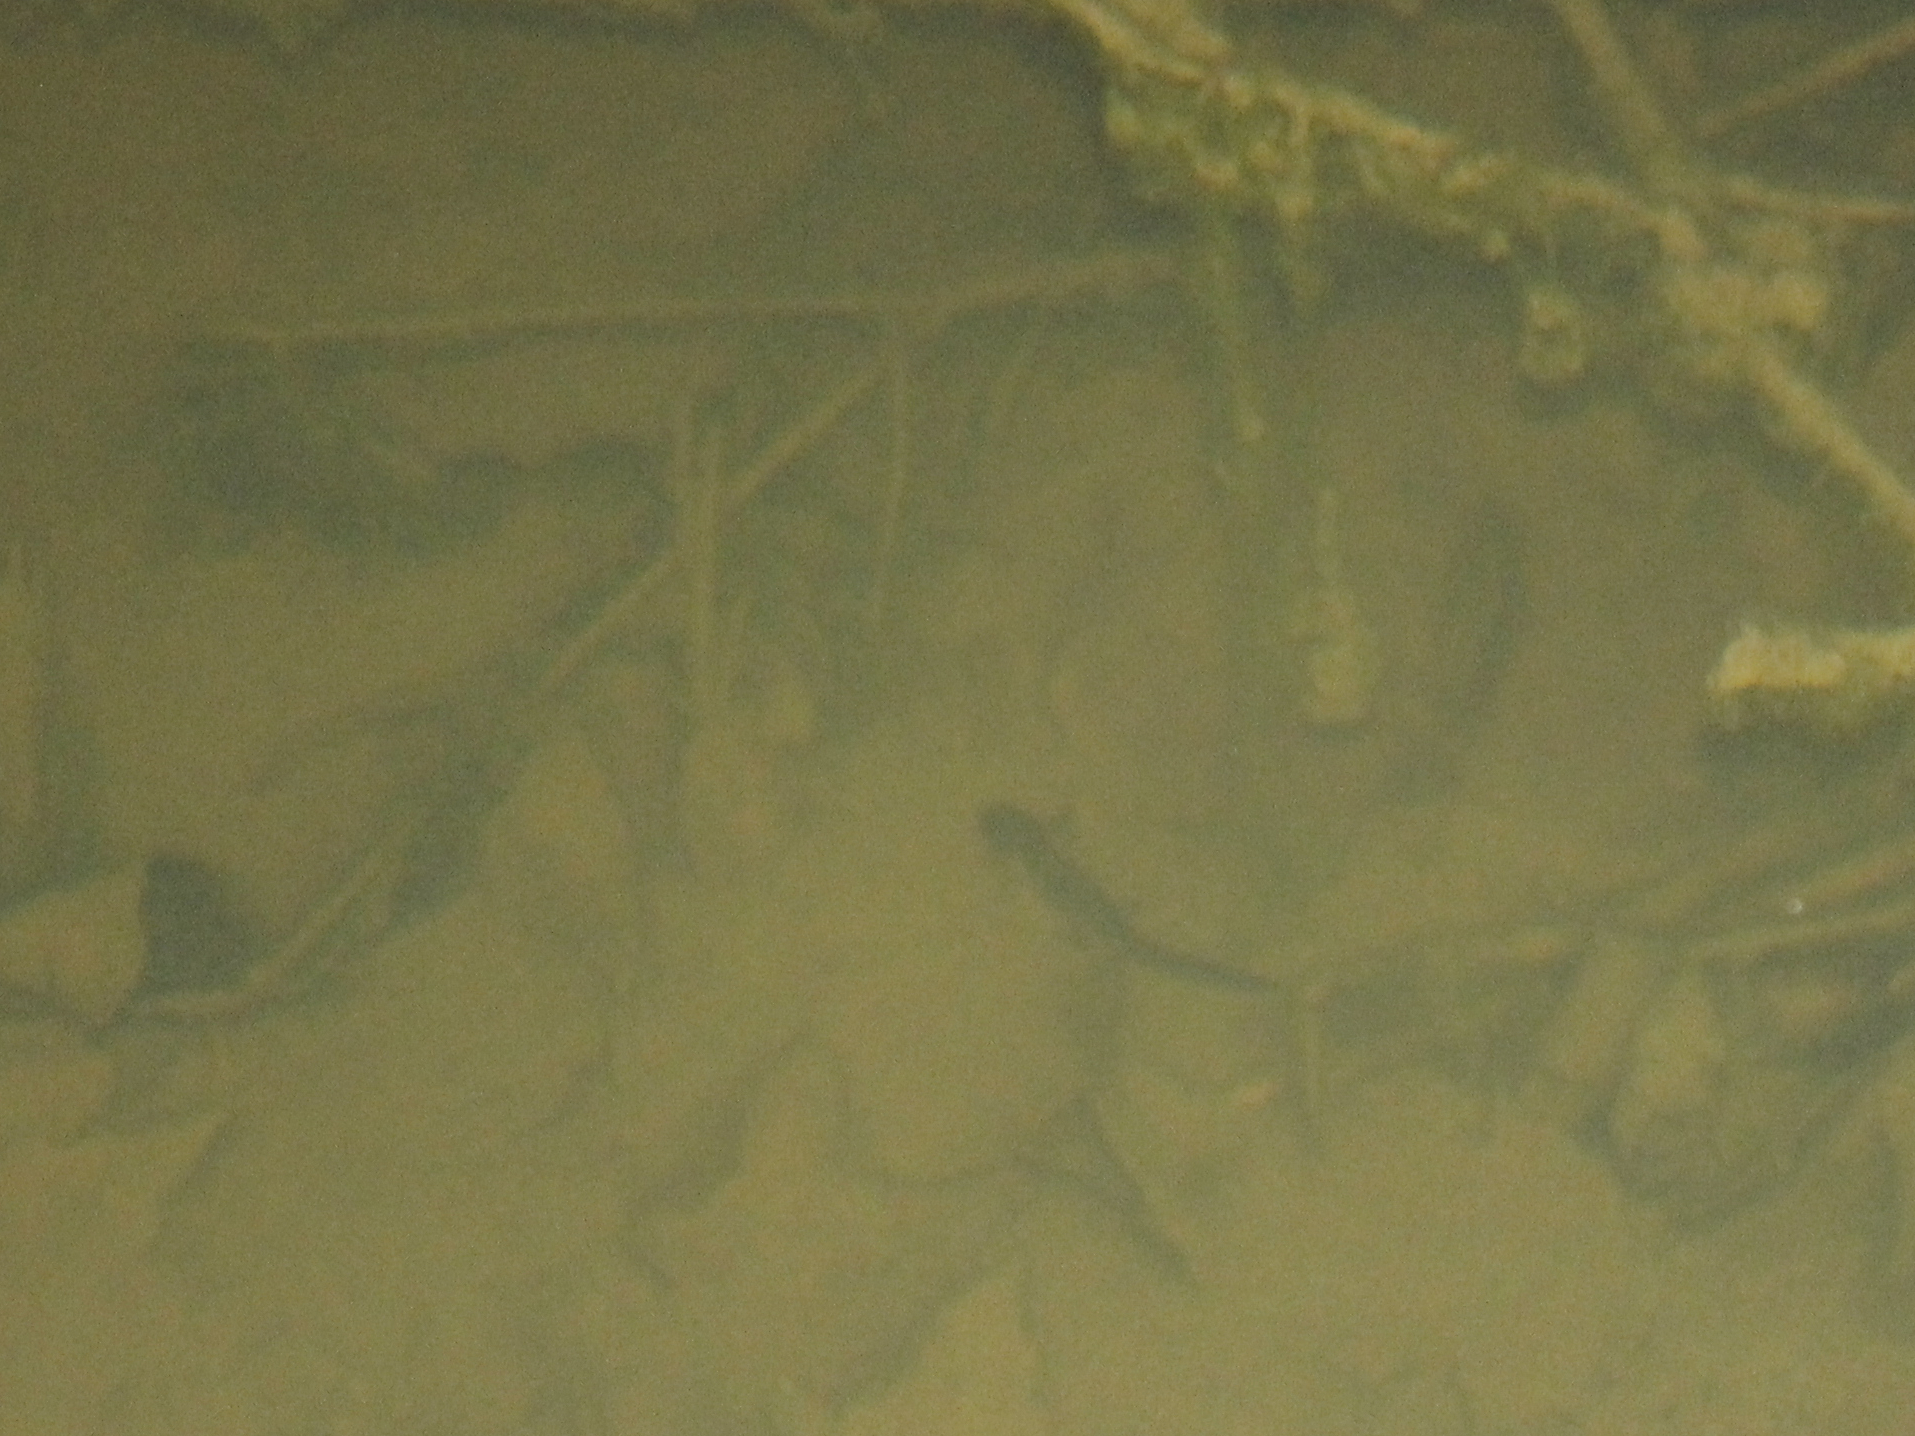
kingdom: Animalia
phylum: Chordata
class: Amphibia
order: Caudata
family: Salamandridae
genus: Notophthalmus
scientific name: Notophthalmus viridescens
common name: Eastern newt
